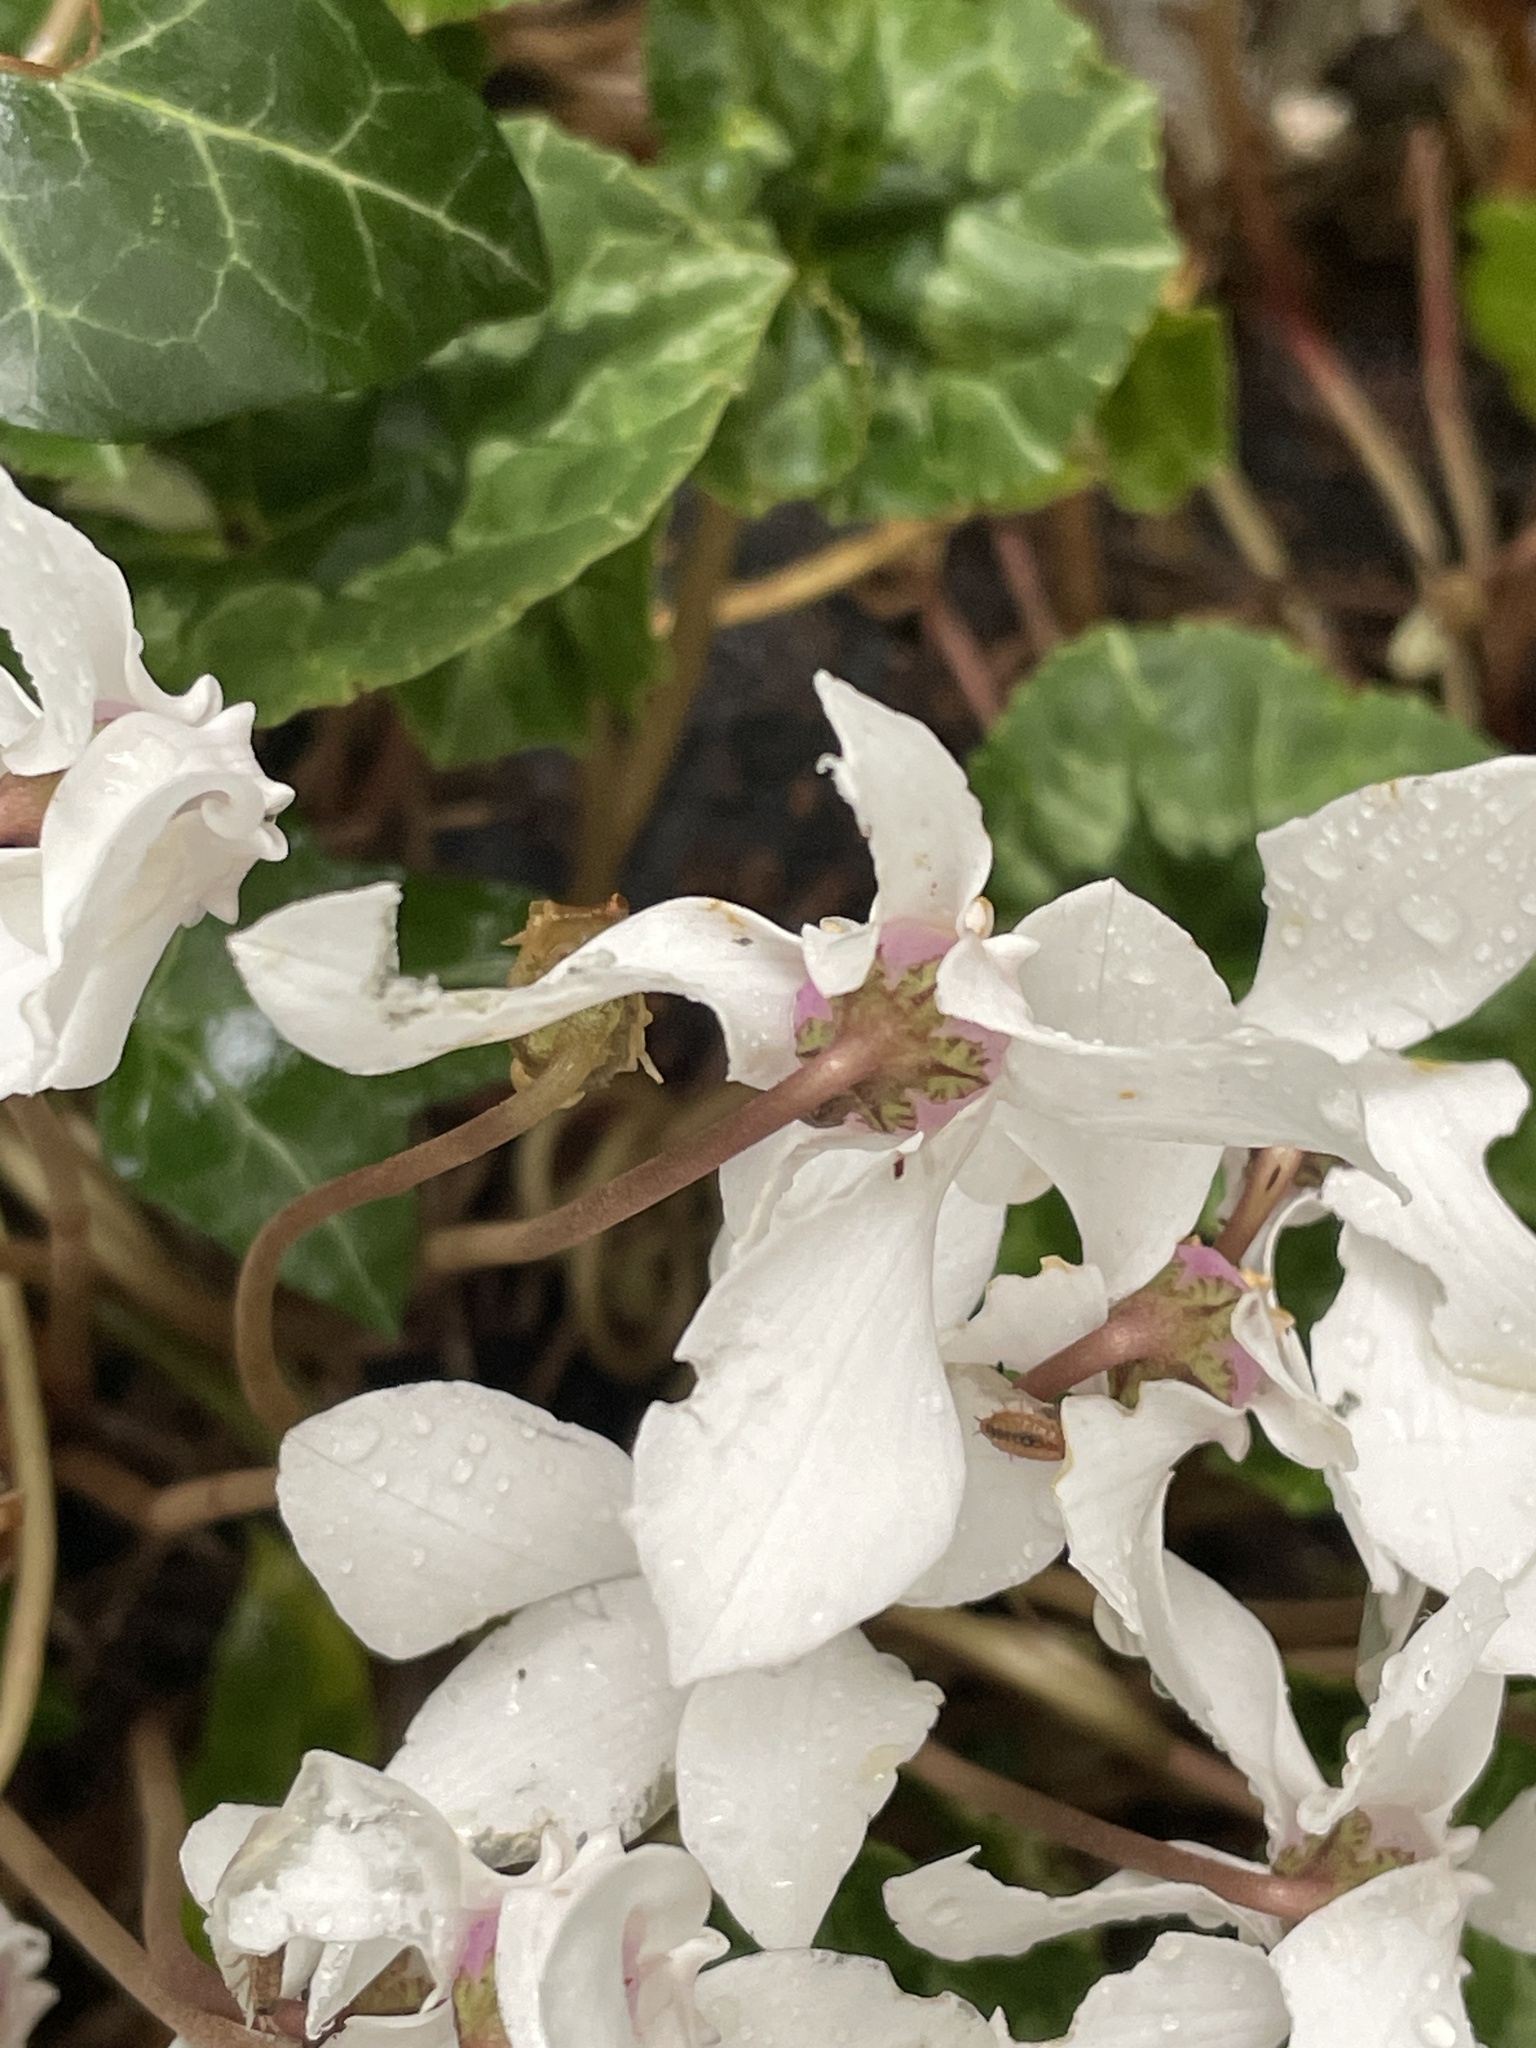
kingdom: Plantae
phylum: Tracheophyta
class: Magnoliopsida
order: Ericales
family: Primulaceae
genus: Cyclamen
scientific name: Cyclamen hederifolium
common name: Sowbread
